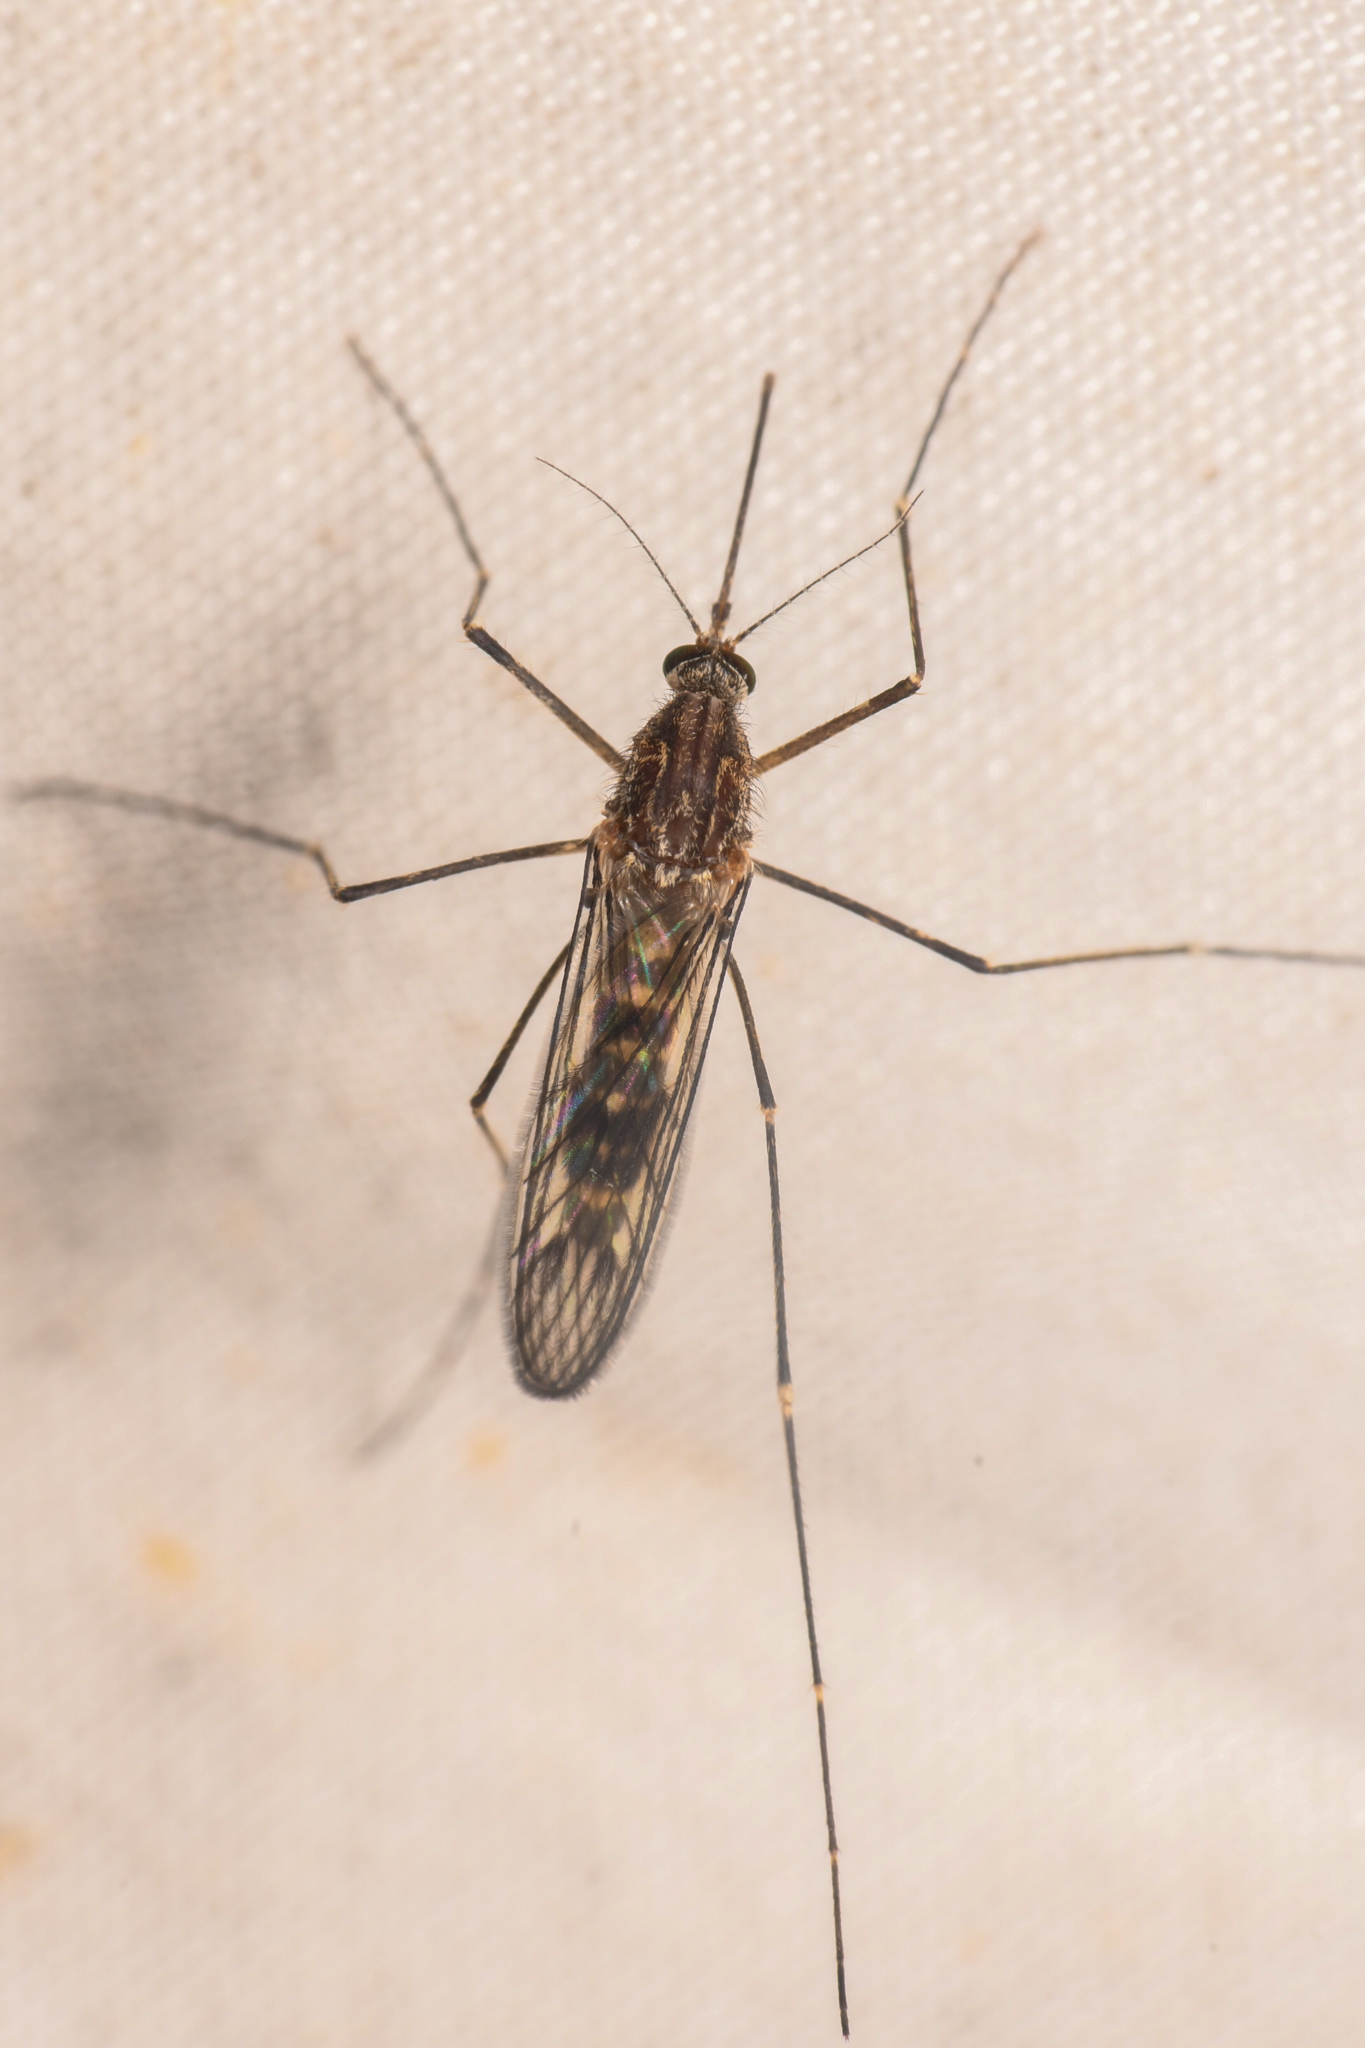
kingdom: Animalia
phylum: Arthropoda
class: Insecta
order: Diptera
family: Culicidae
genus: Culiseta
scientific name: Culiseta incidens
